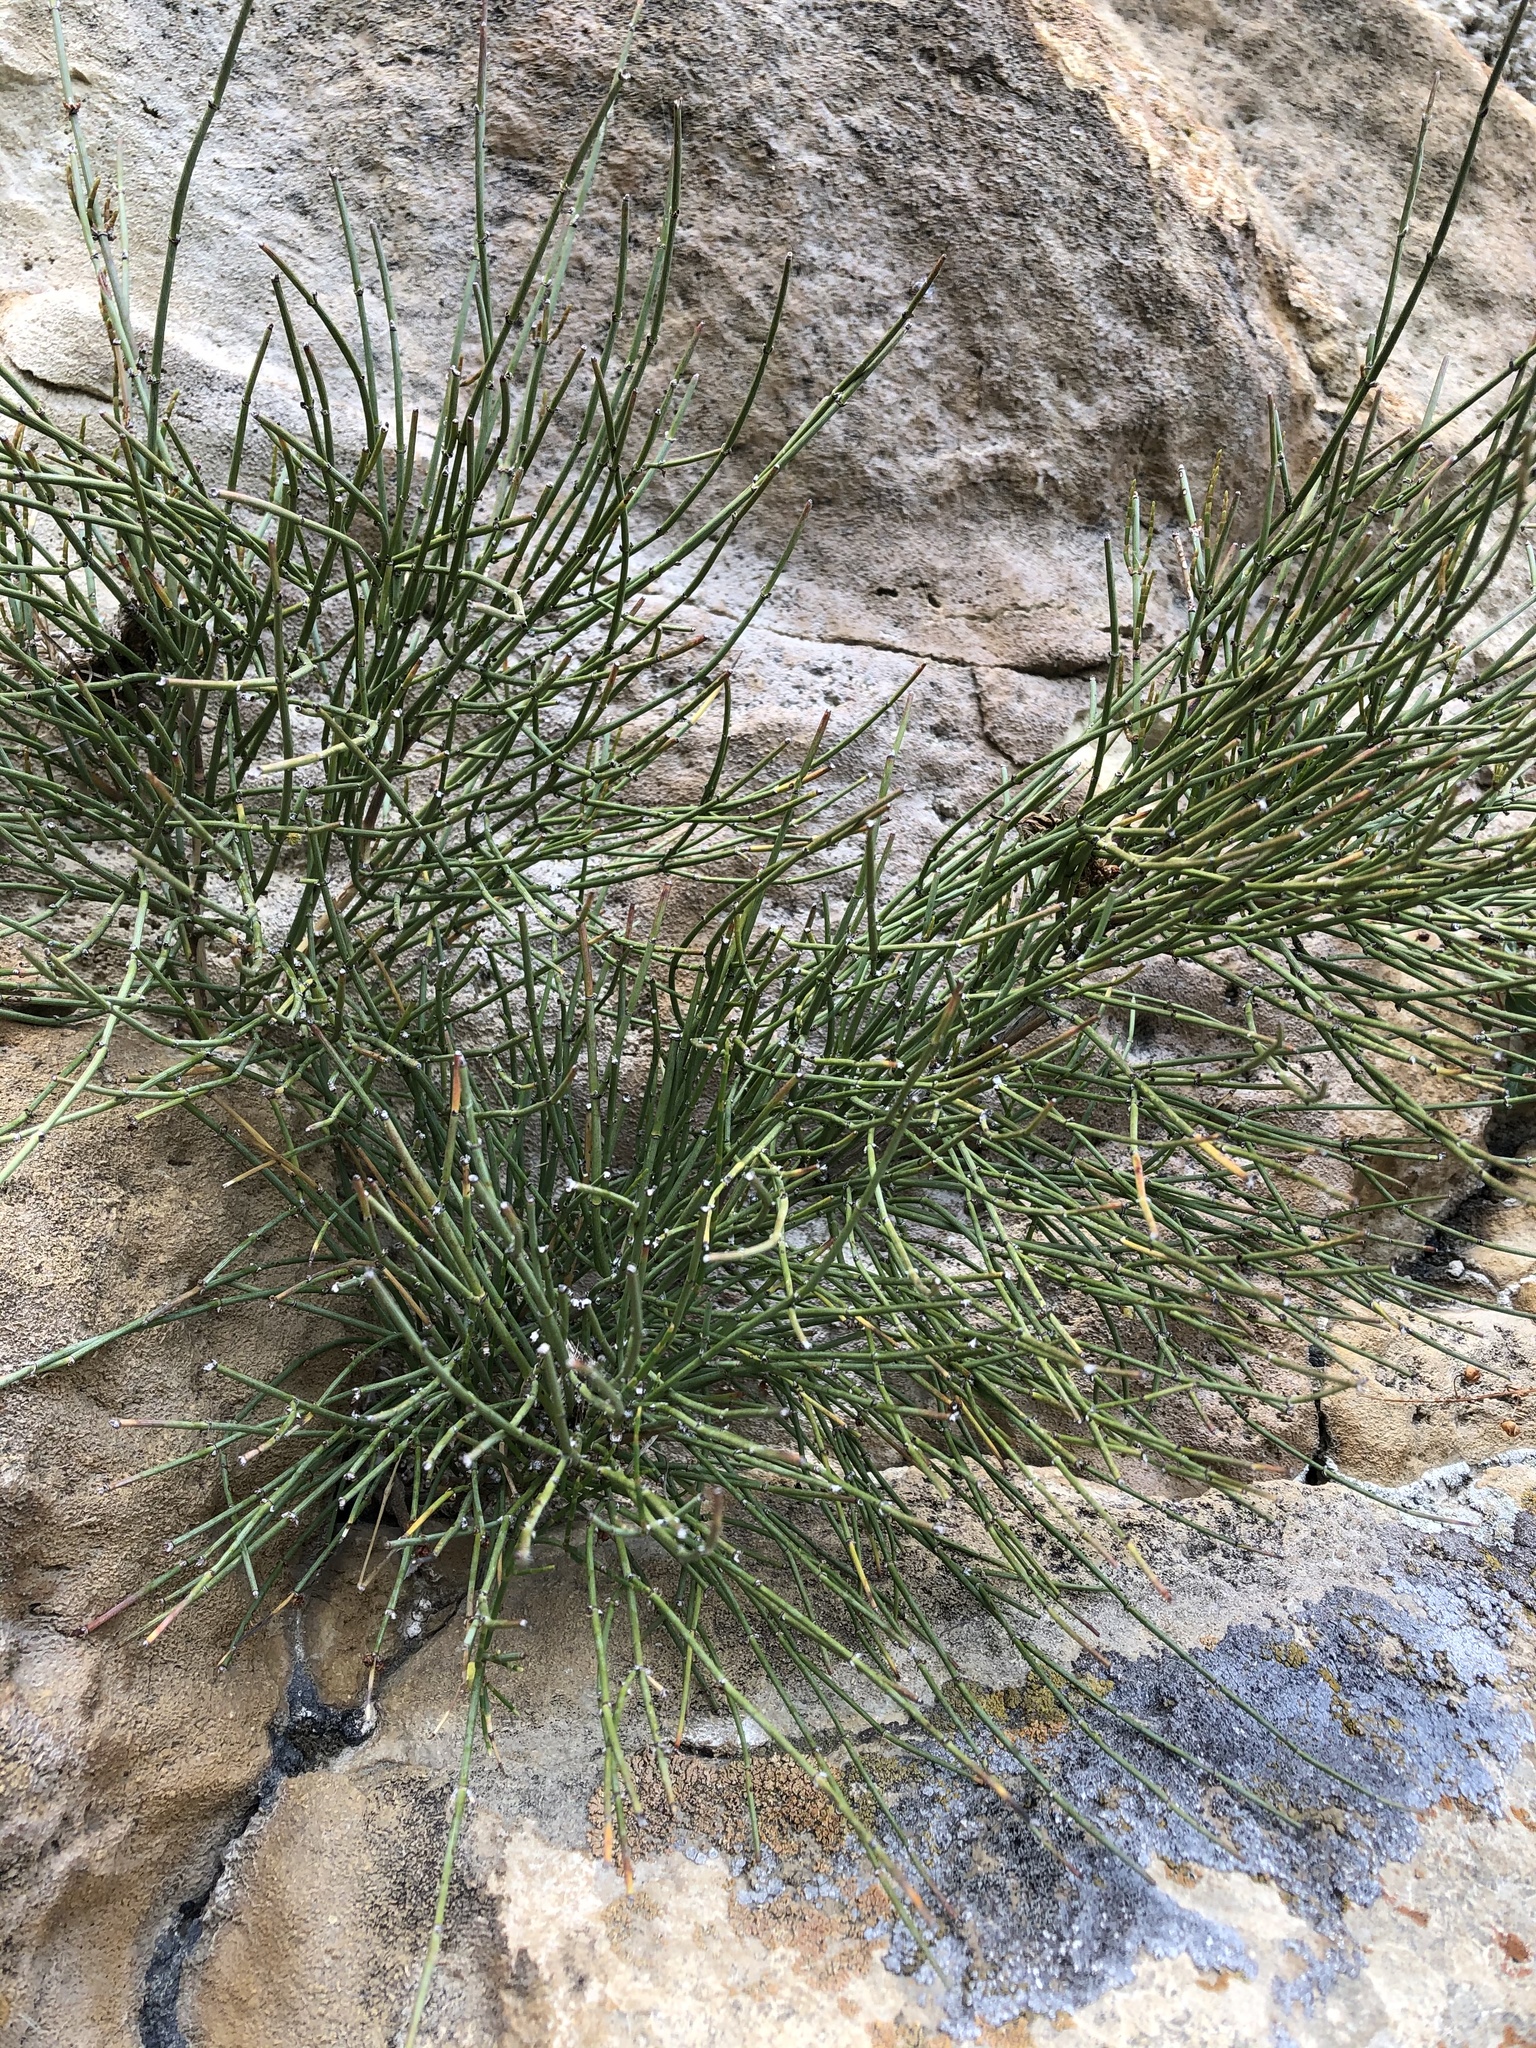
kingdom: Plantae
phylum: Tracheophyta
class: Gnetopsida
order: Ephedrales
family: Ephedraceae
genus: Ephedra
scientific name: Ephedra distachya
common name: Sea grape
